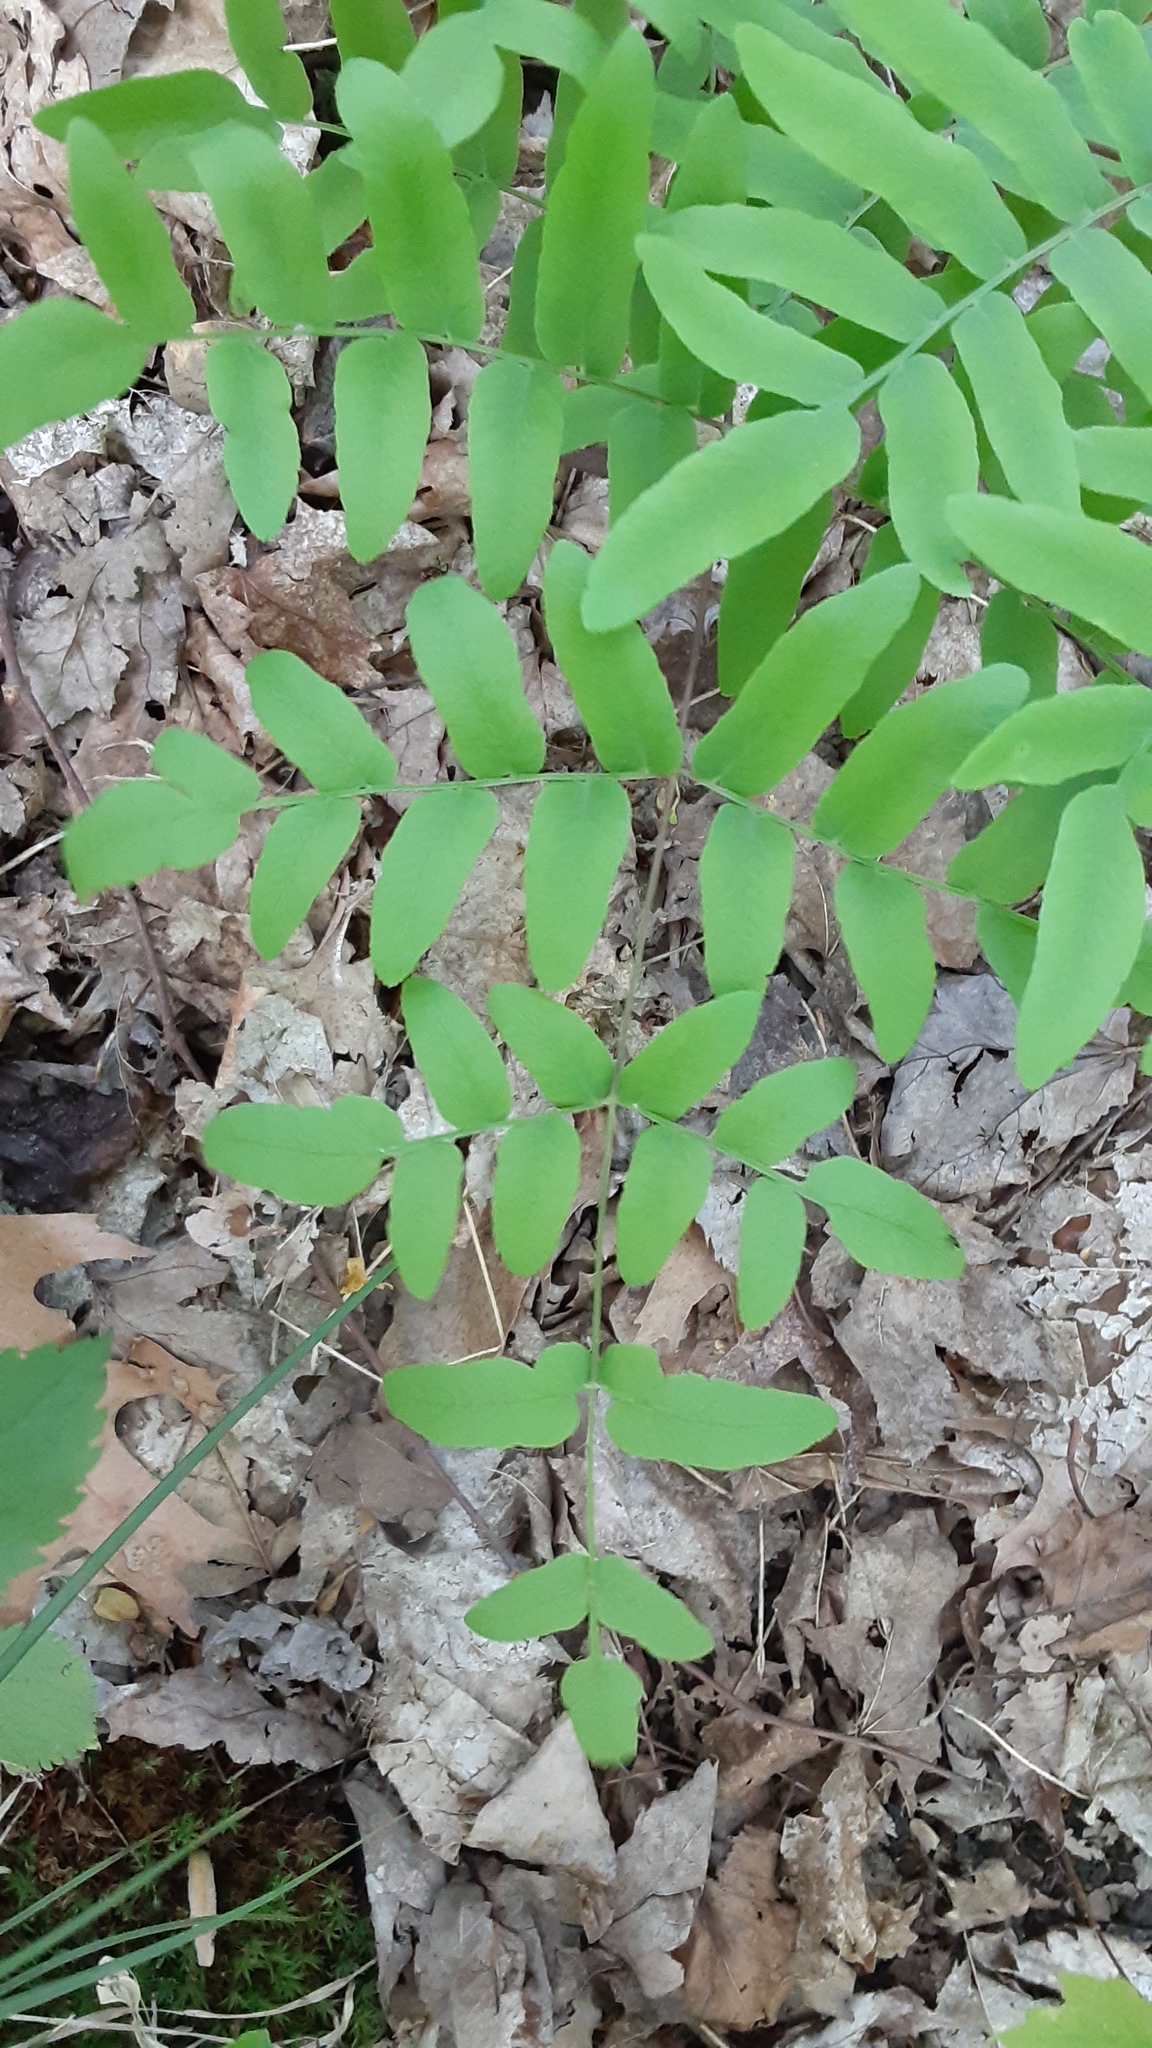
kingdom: Plantae
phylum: Tracheophyta
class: Polypodiopsida
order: Osmundales
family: Osmundaceae
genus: Osmunda
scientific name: Osmunda spectabilis
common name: American royal fern
